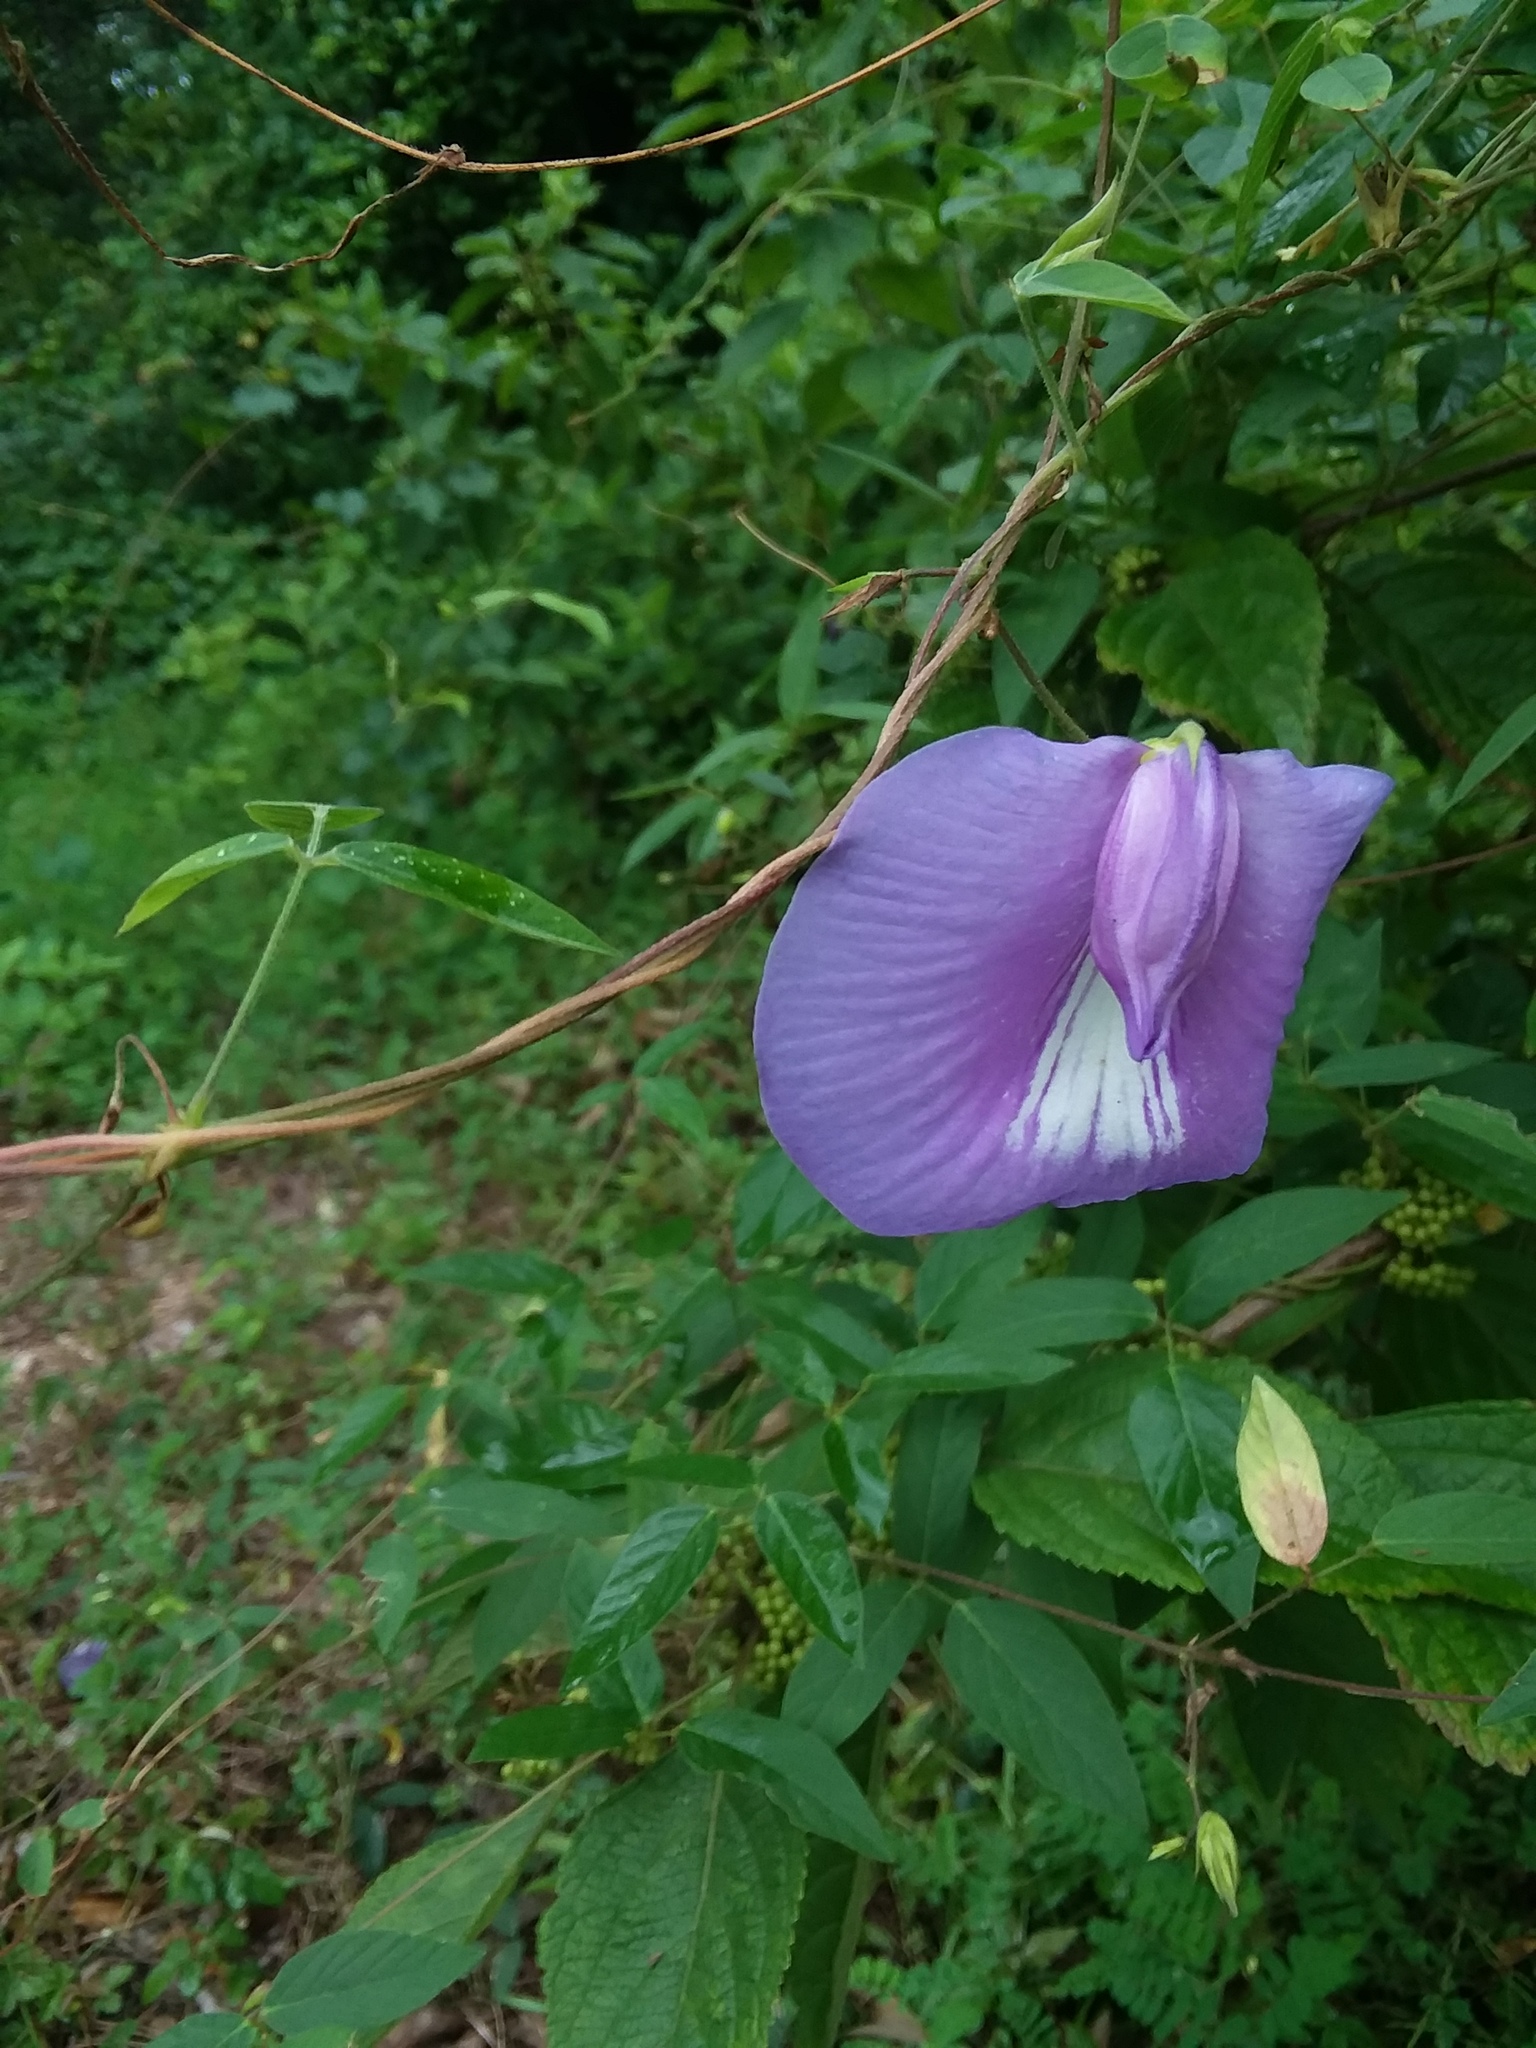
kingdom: Plantae
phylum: Tracheophyta
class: Magnoliopsida
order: Fabales
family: Fabaceae
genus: Centrosema
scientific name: Centrosema virginianum
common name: Butterfly-pea
